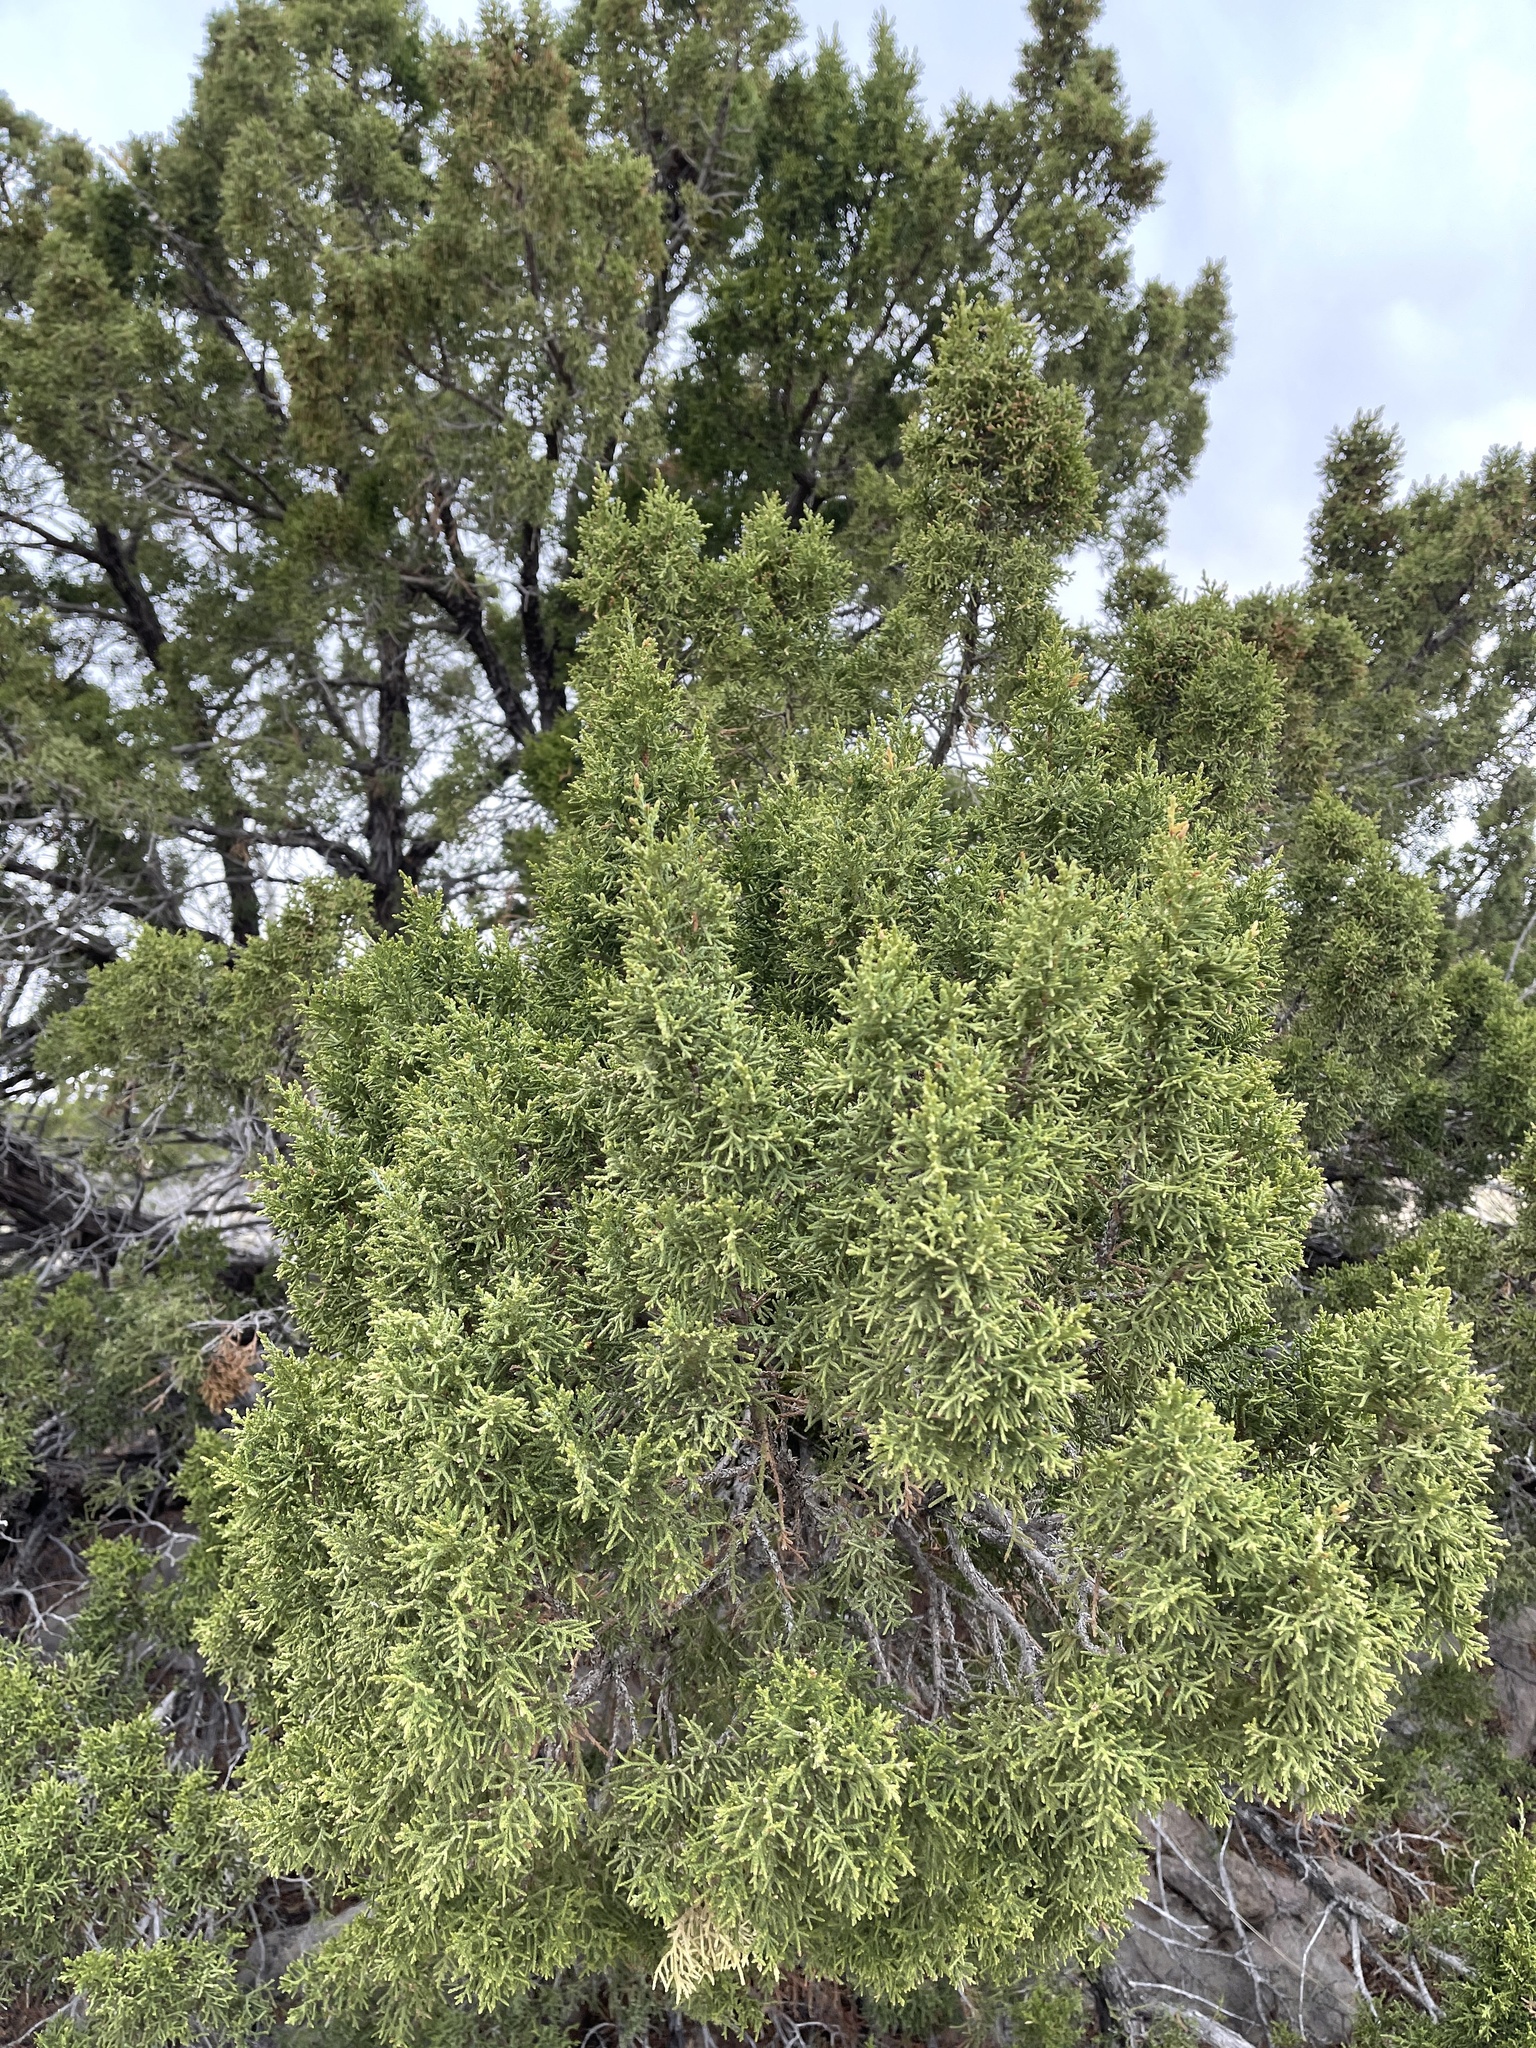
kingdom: Plantae
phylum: Tracheophyta
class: Pinopsida
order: Pinales
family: Cupressaceae
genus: Juniperus
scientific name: Juniperus monosperma
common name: One-seed juniper
